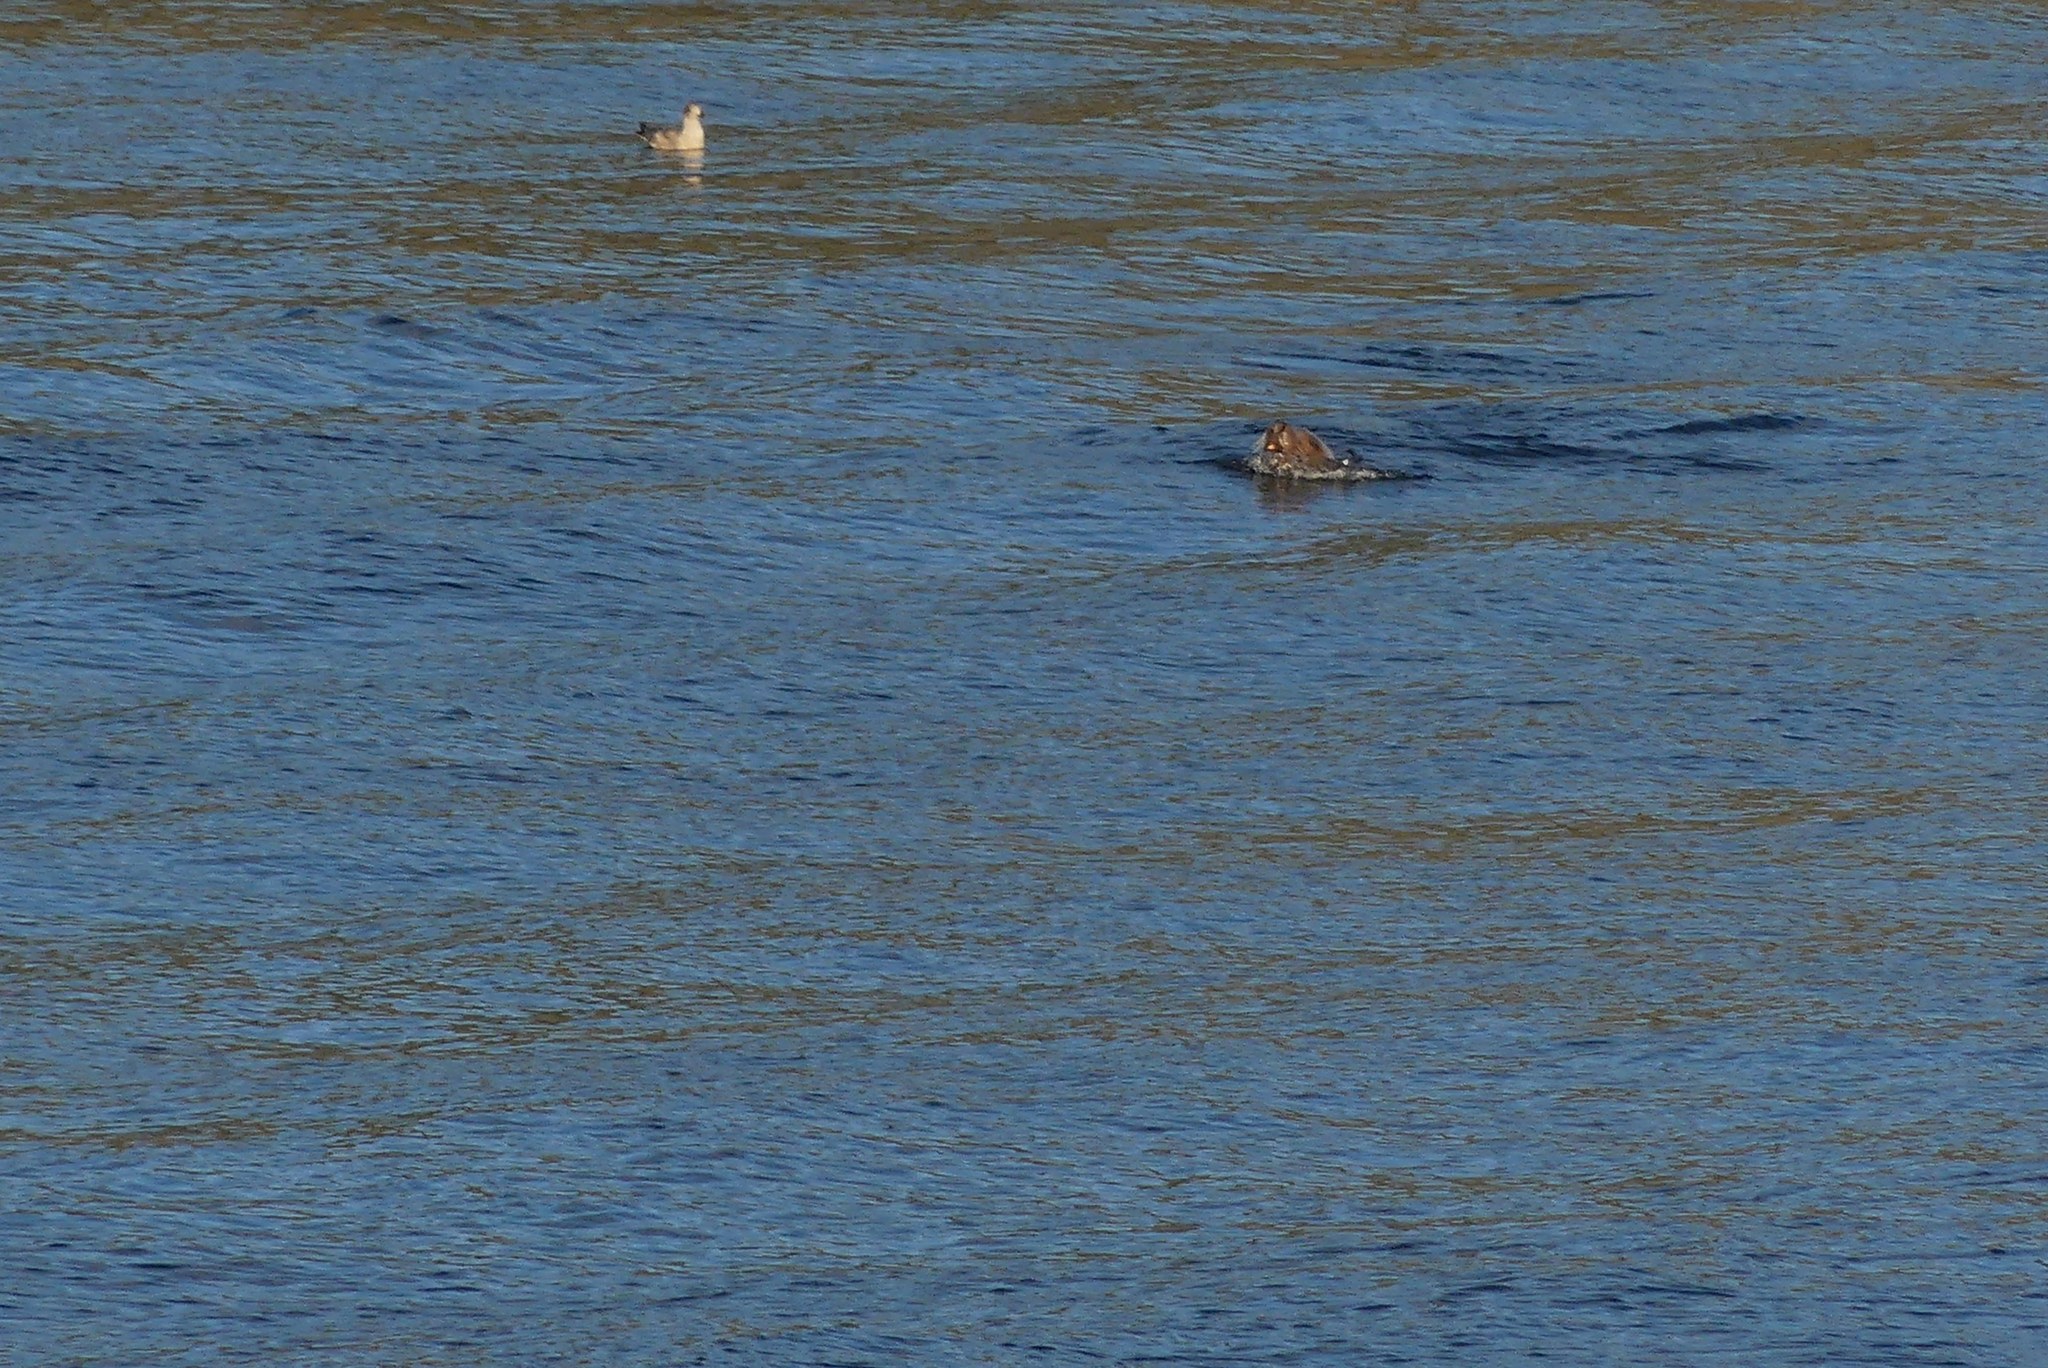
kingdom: Animalia
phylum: Chordata
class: Mammalia
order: Carnivora
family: Otariidae
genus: Eumetopias
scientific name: Eumetopias jubatus
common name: Steller sea lion
